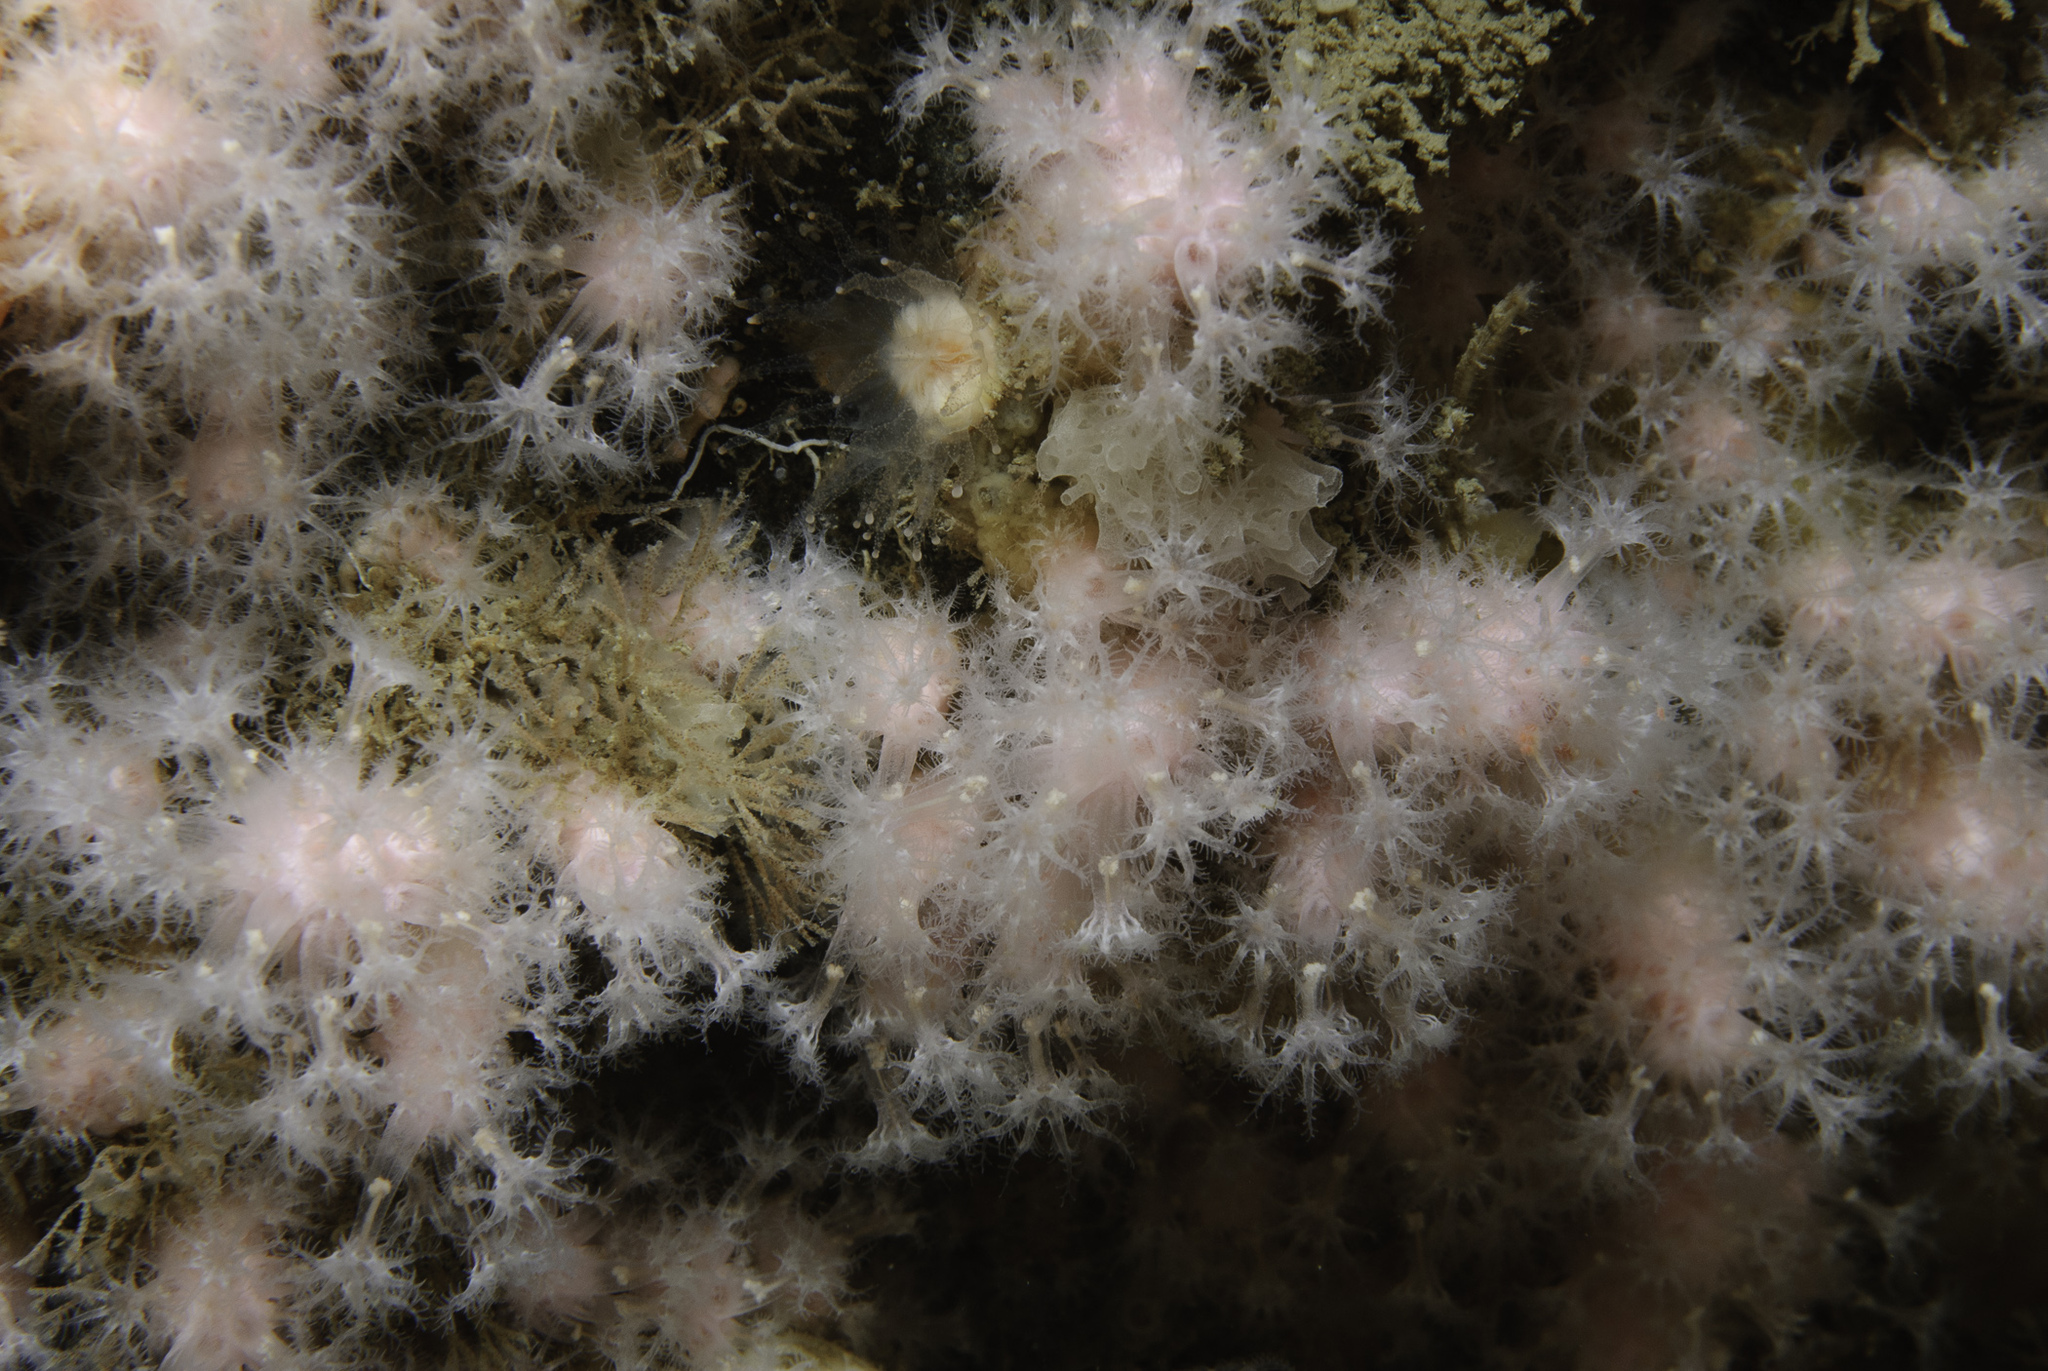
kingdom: Animalia
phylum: Cnidaria
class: Anthozoa
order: Malacalcyonacea
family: Alcyoniidae
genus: Alcyonium
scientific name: Alcyonium hibernicum
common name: Pink sea fingers
